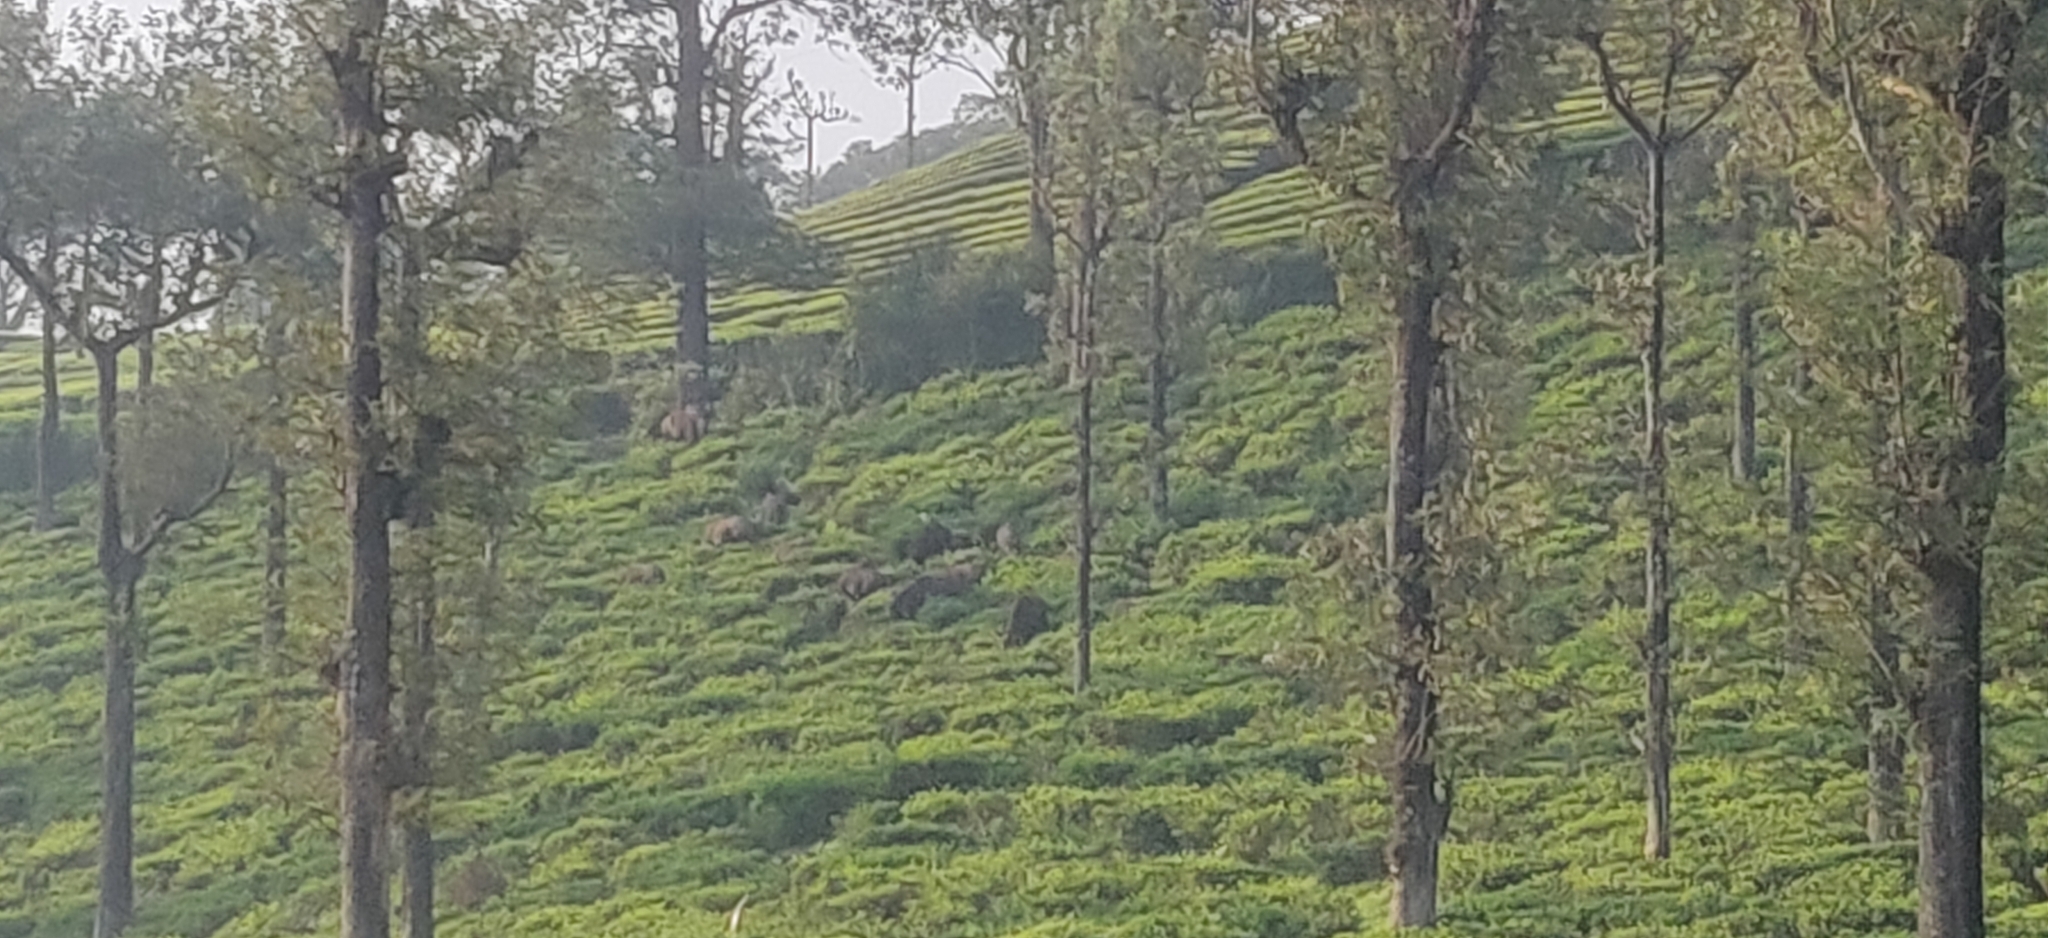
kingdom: Animalia
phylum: Chordata
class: Mammalia
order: Artiodactyla
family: Bovidae
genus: Bos
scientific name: Bos frontalis
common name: Gaur
